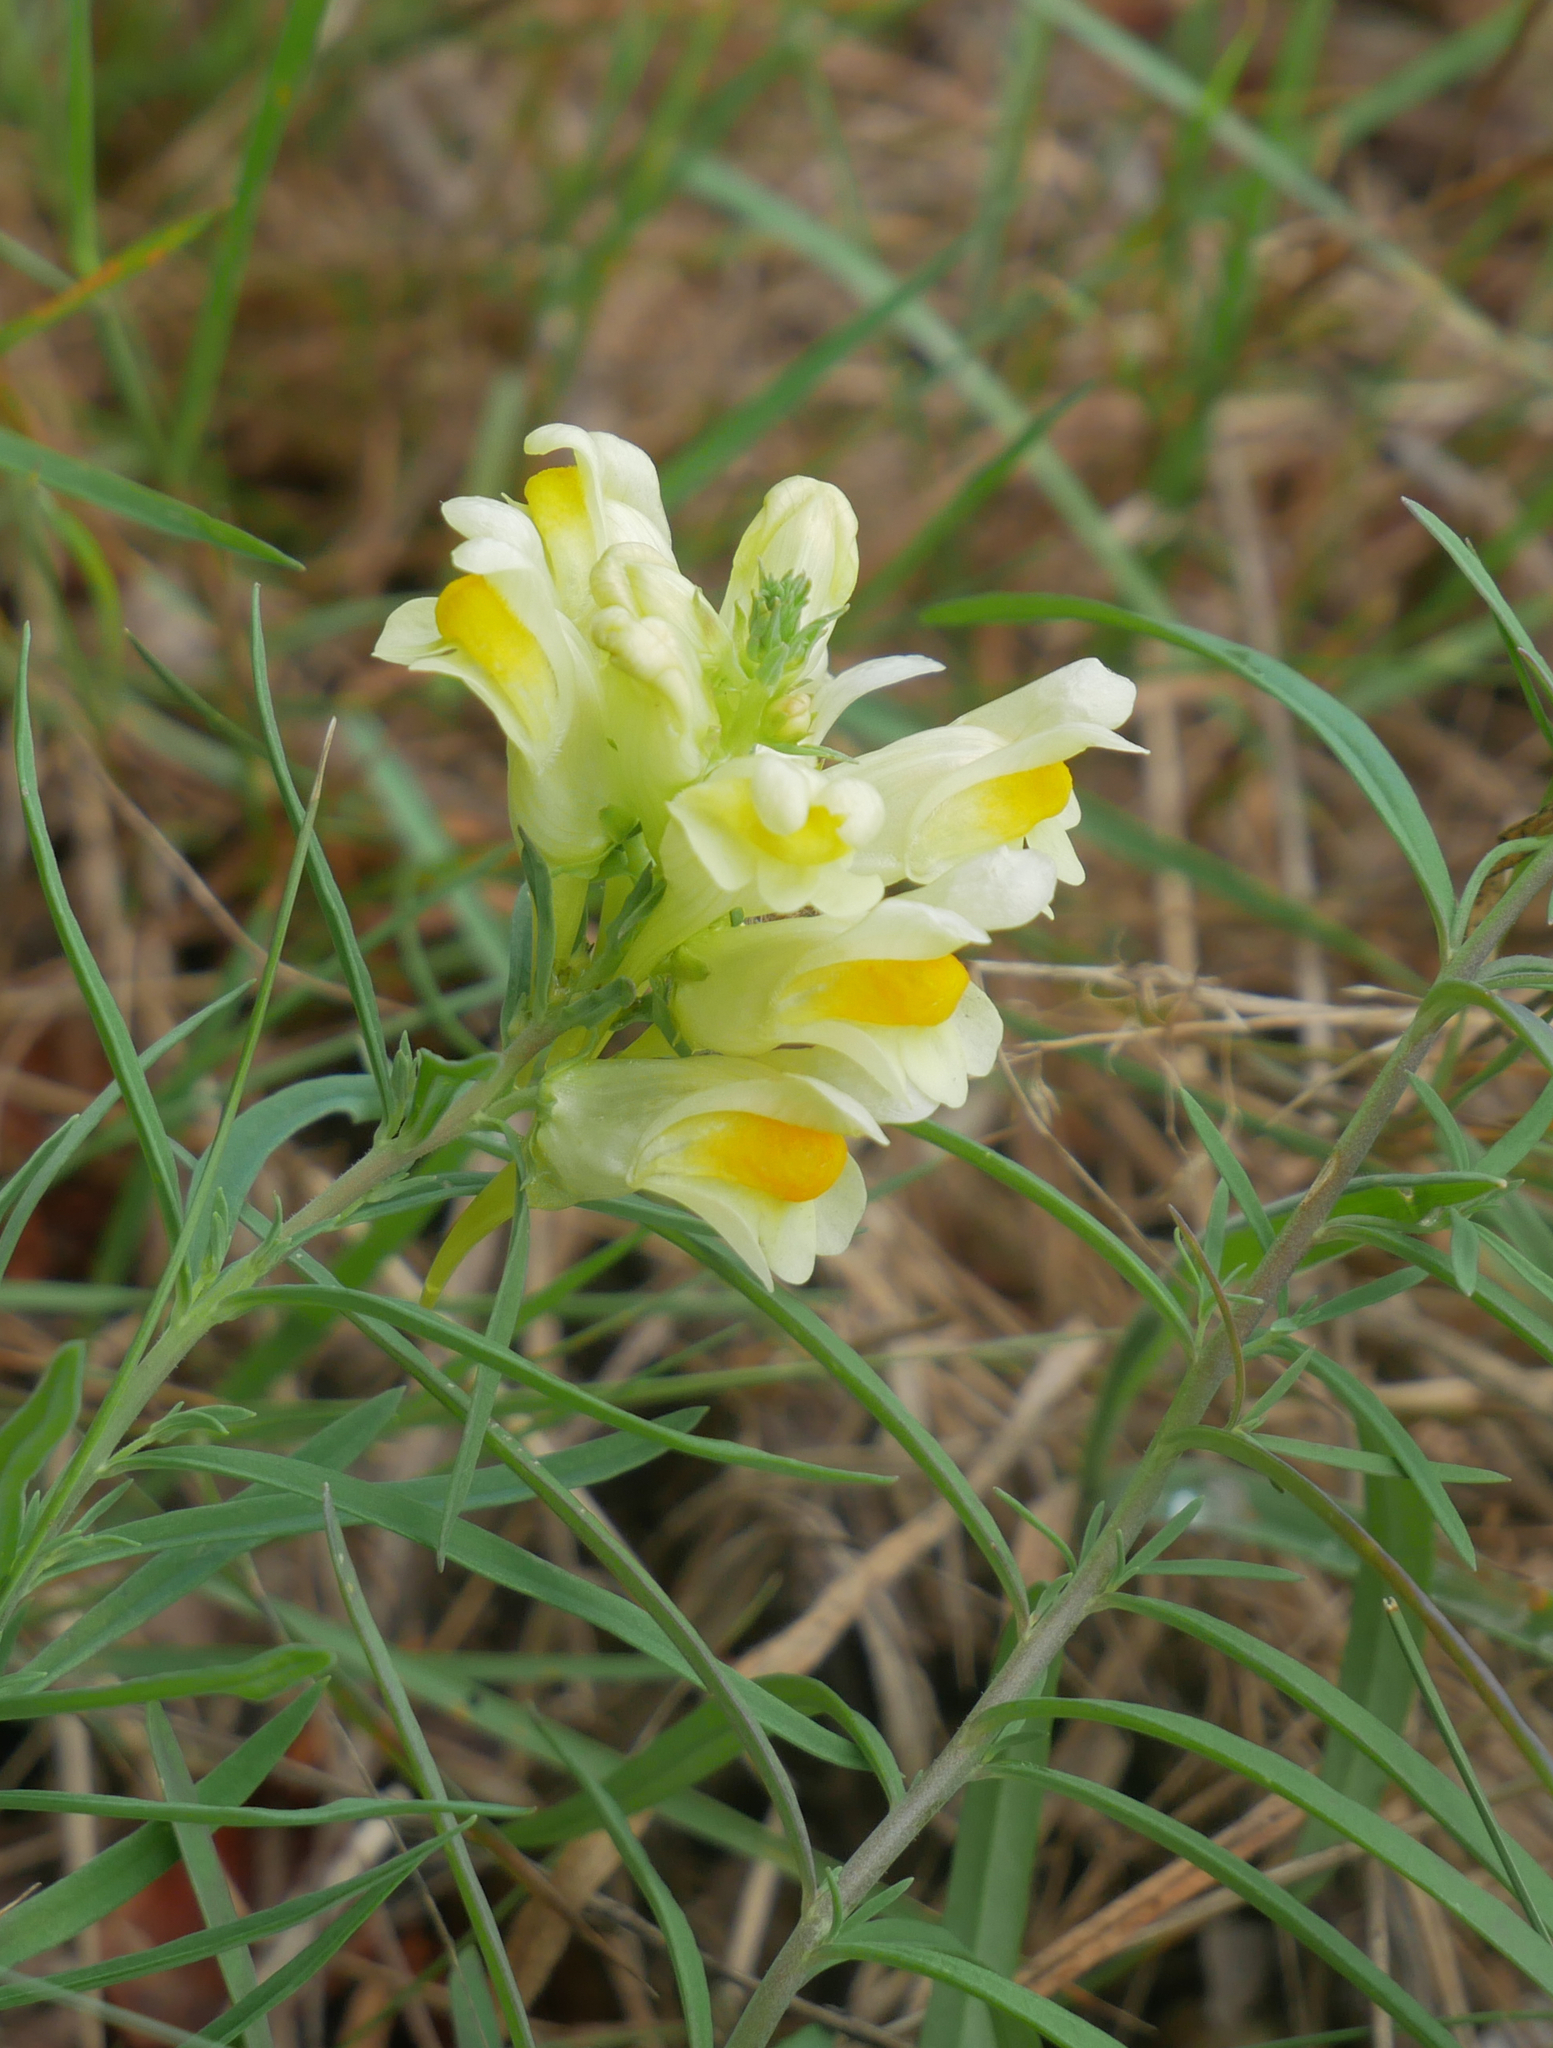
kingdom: Plantae
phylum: Tracheophyta
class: Magnoliopsida
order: Lamiales
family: Plantaginaceae
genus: Linaria
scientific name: Linaria vulgaris
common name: Butter and eggs
